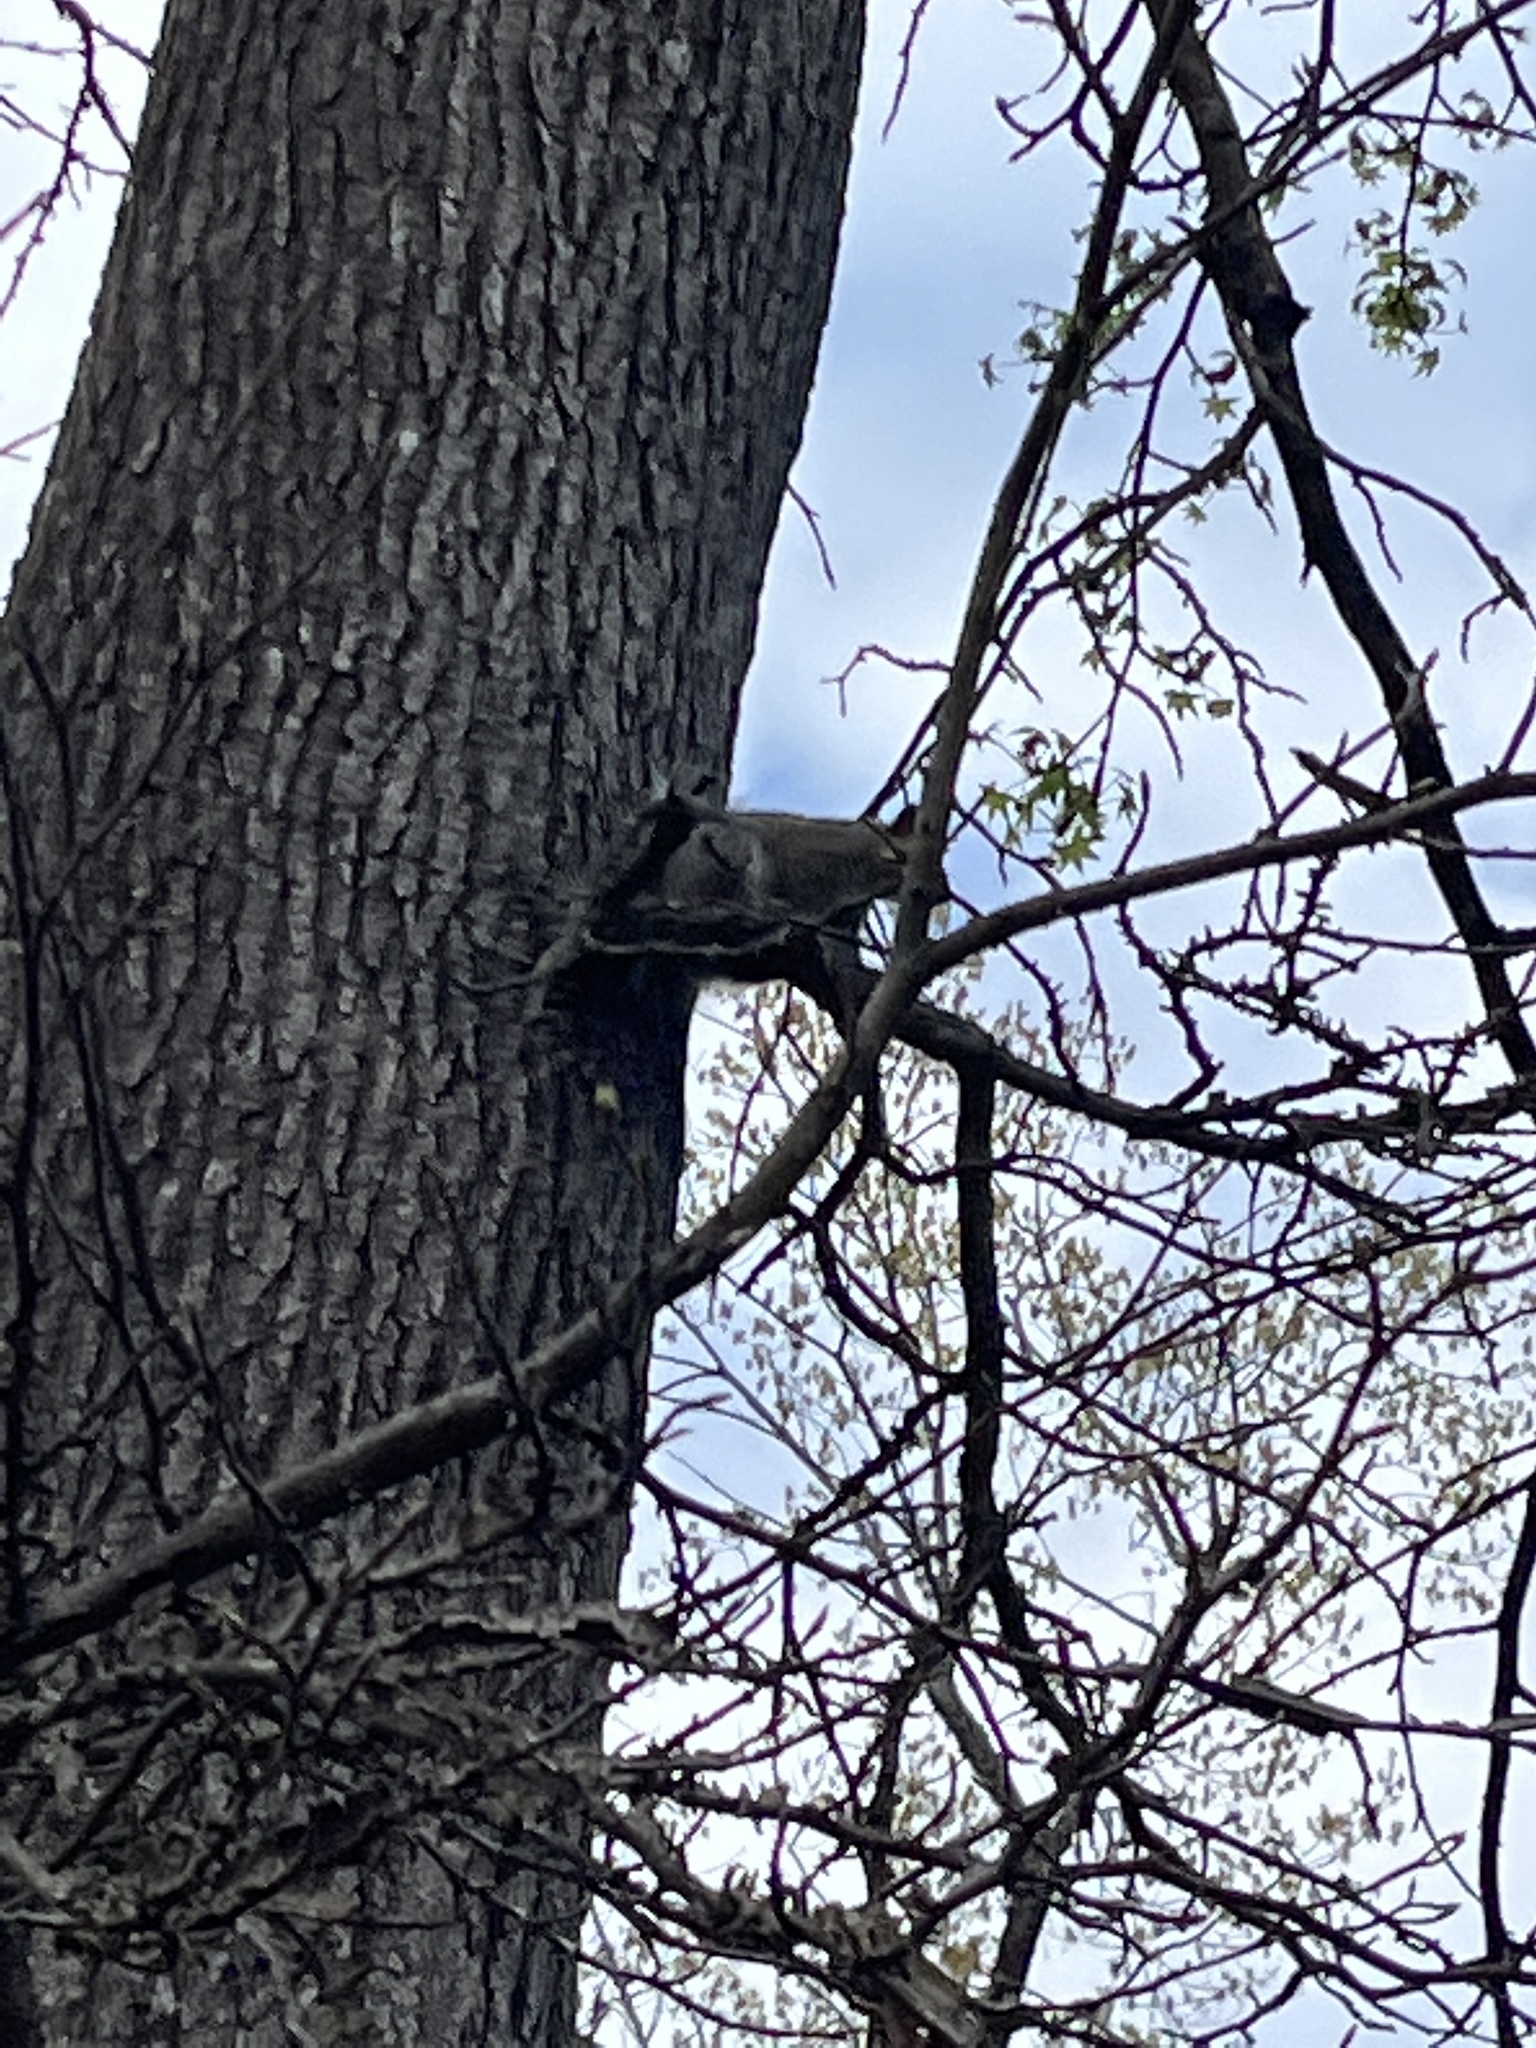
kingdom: Animalia
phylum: Chordata
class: Mammalia
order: Rodentia
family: Sciuridae
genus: Sciurus
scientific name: Sciurus carolinensis
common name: Eastern gray squirrel
